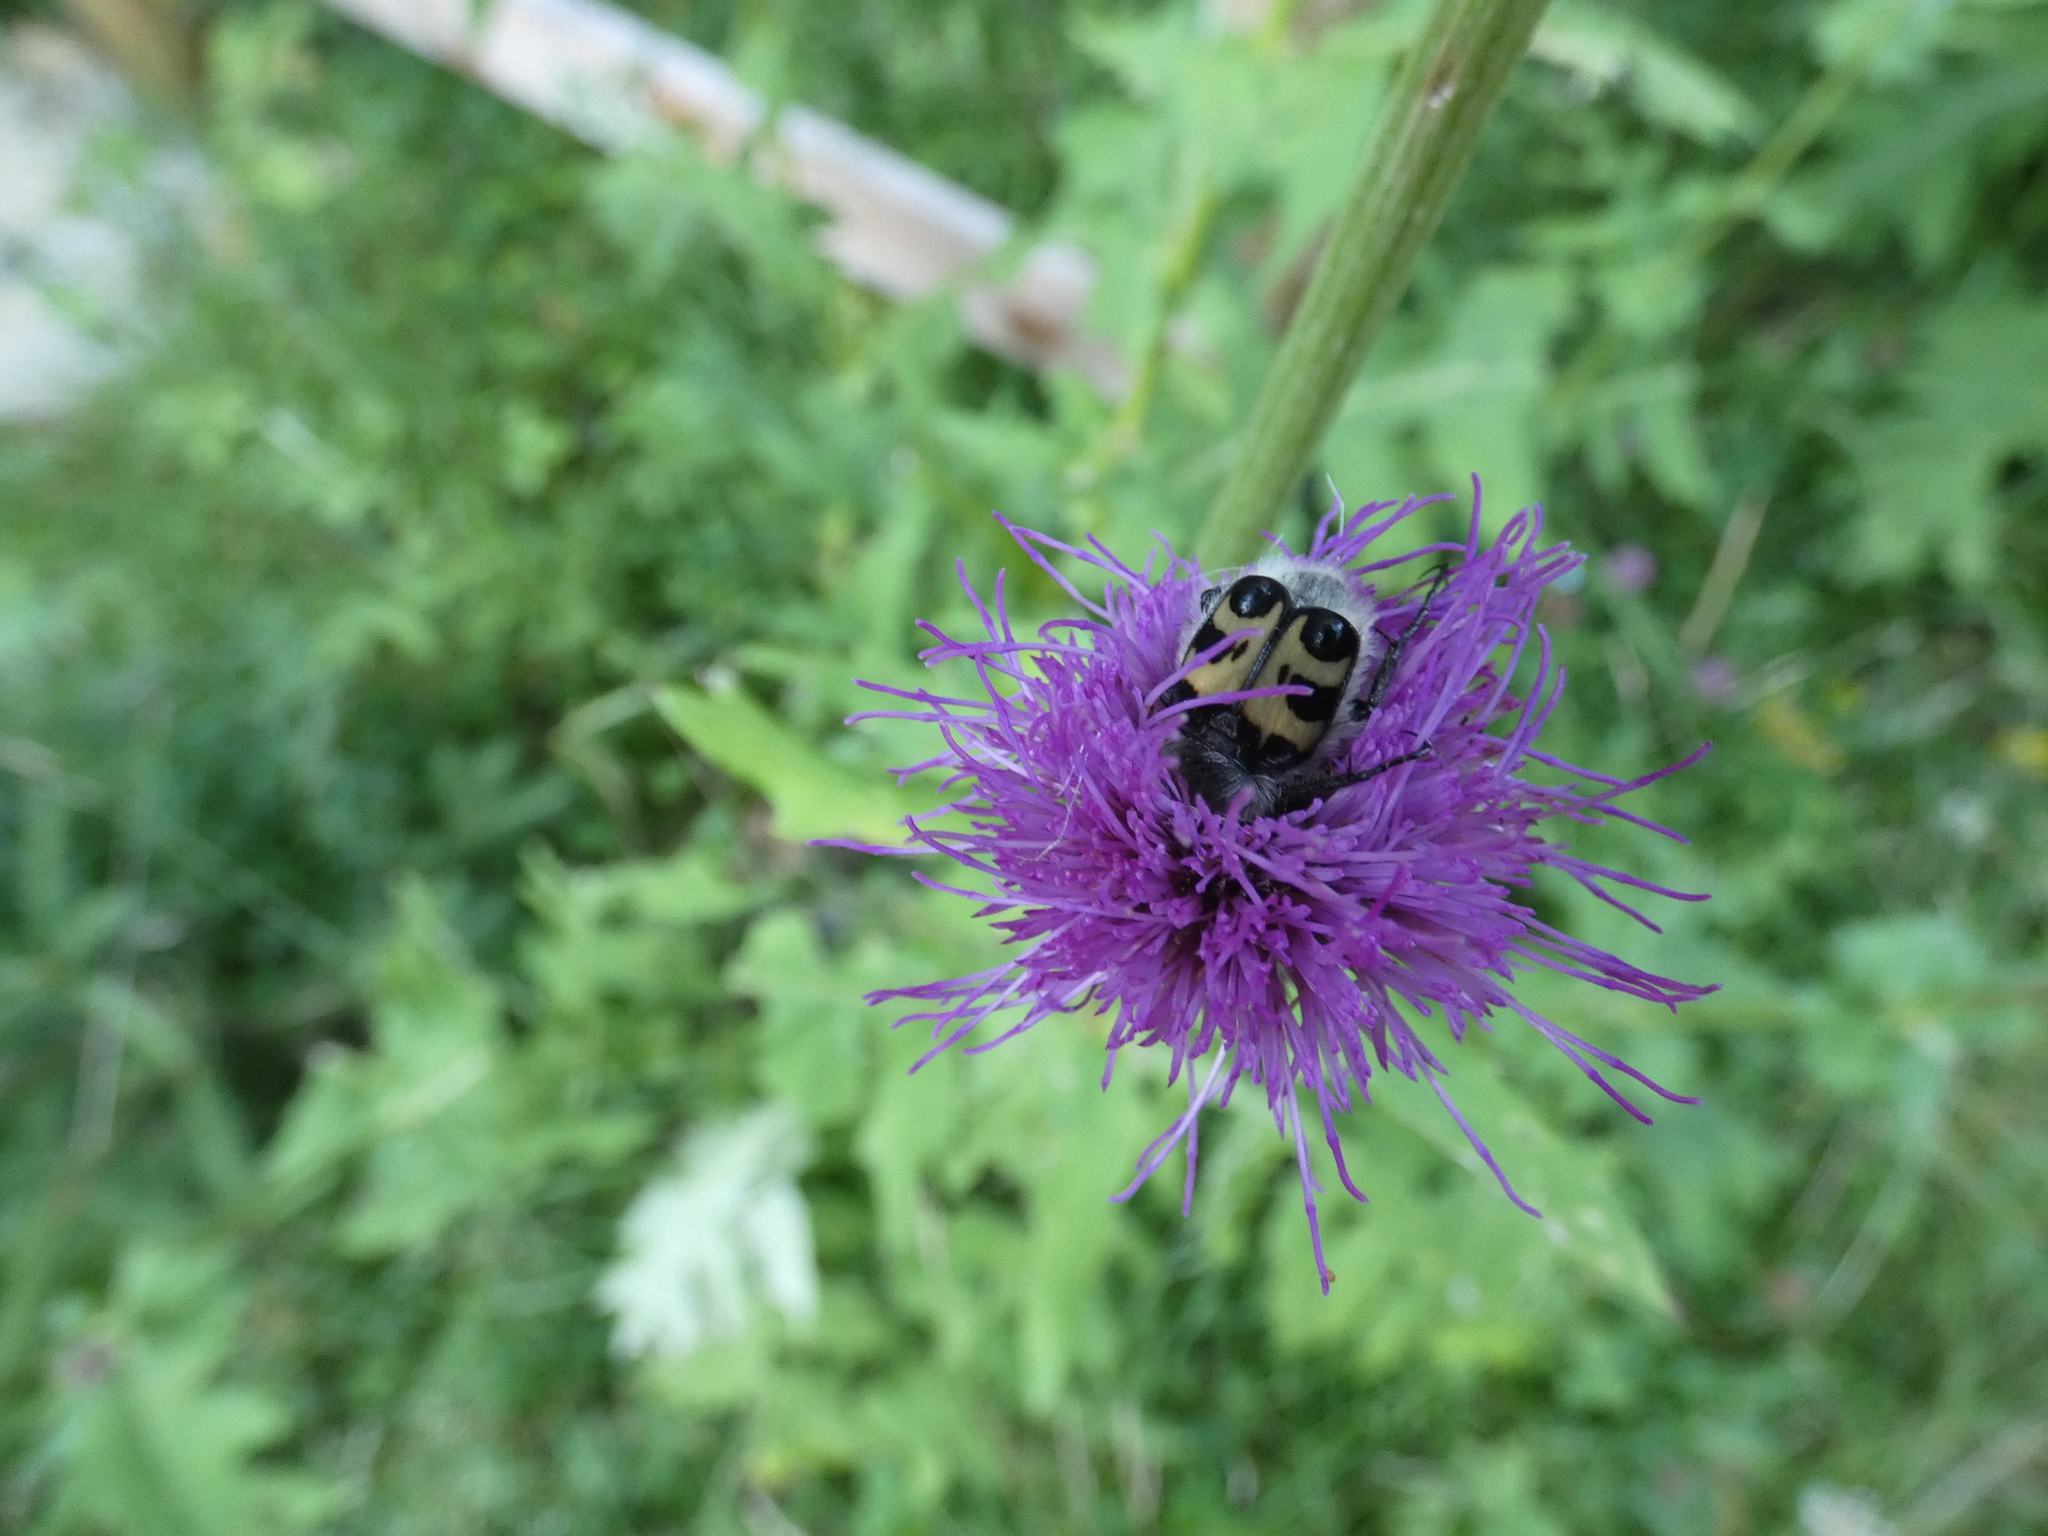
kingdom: Animalia
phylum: Arthropoda
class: Insecta
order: Coleoptera
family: Scarabaeidae
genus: Trichius
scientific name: Trichius fasciatus
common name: Bee beetle
